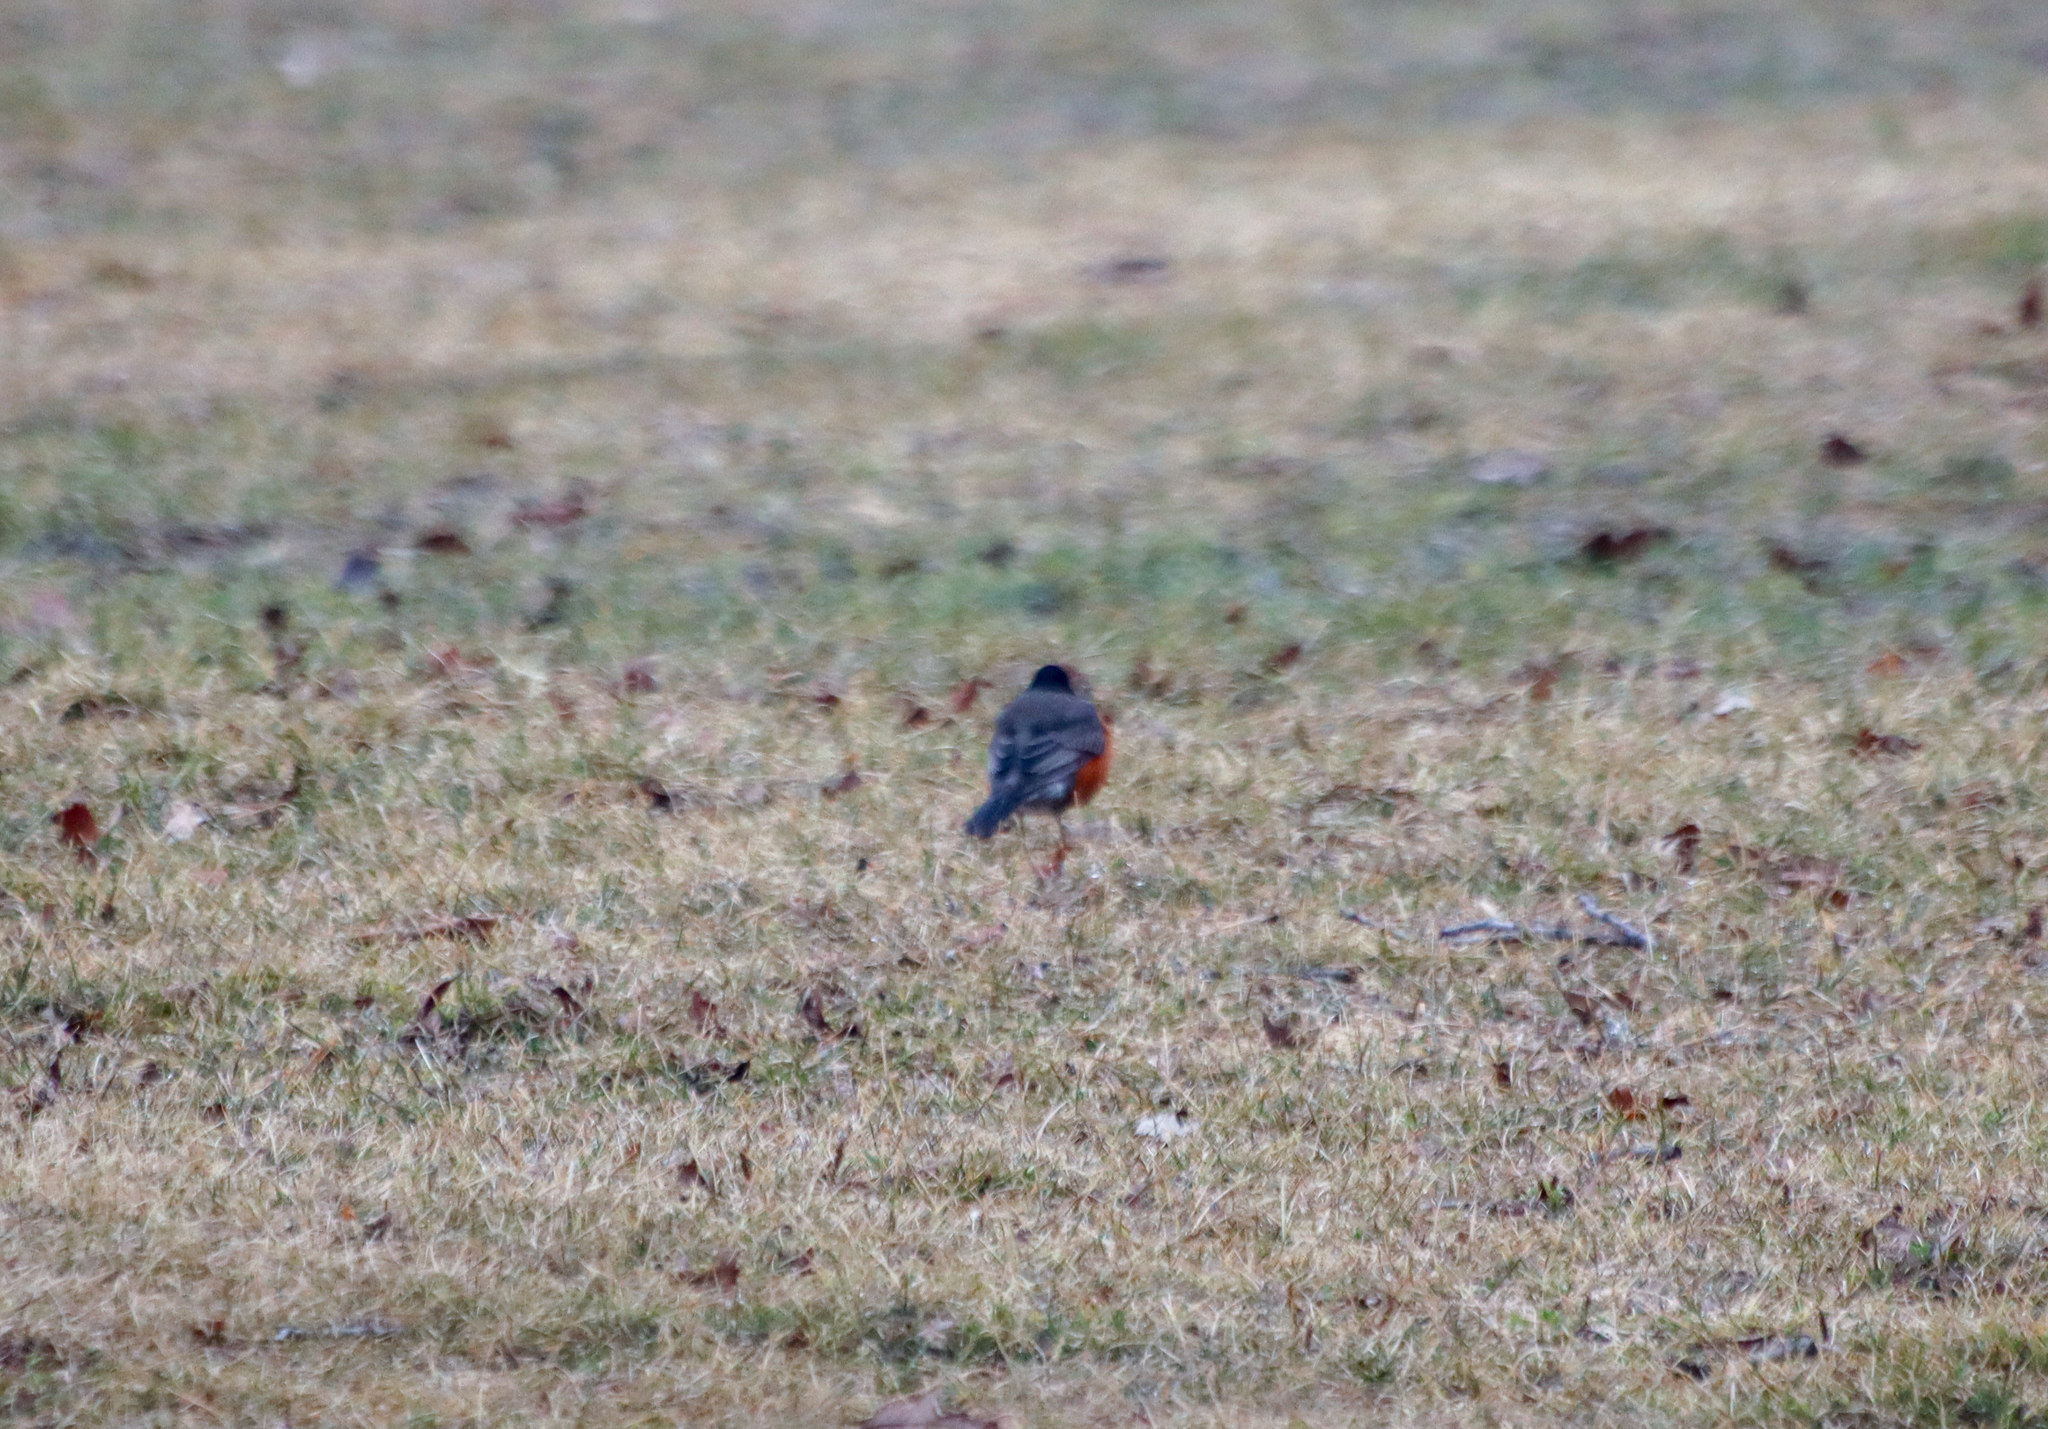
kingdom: Animalia
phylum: Chordata
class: Aves
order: Passeriformes
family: Turdidae
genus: Turdus
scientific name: Turdus migratorius
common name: American robin
